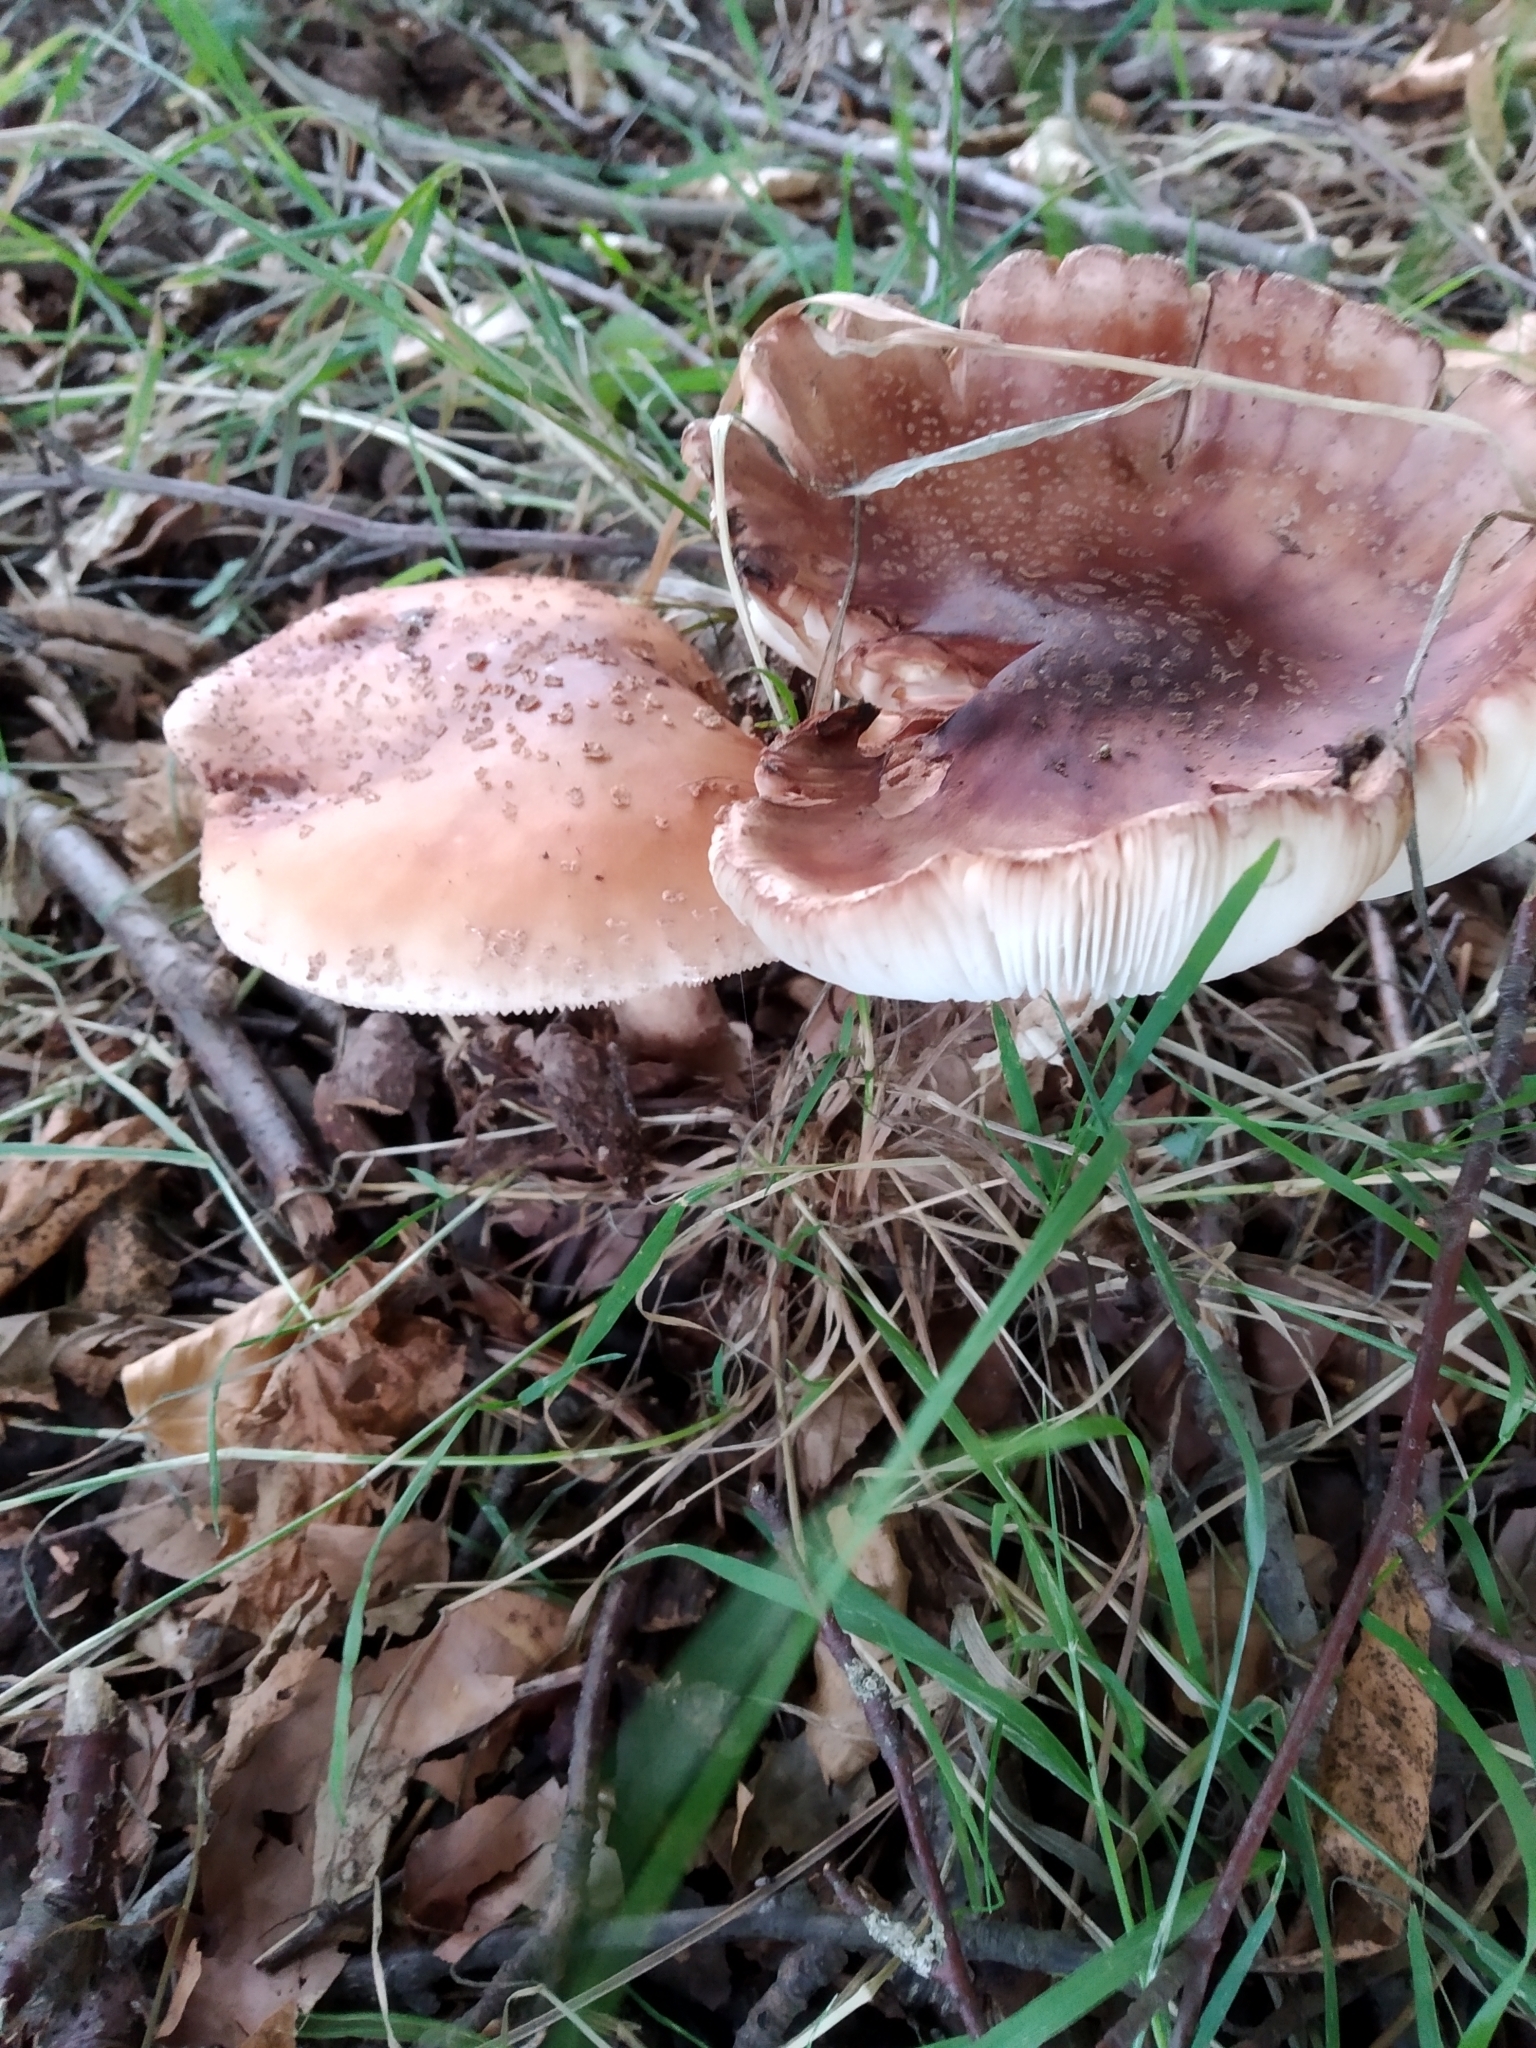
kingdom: Fungi
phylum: Basidiomycota
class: Agaricomycetes
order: Agaricales
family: Amanitaceae
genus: Amanita
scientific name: Amanita rubescens
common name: Blusher
